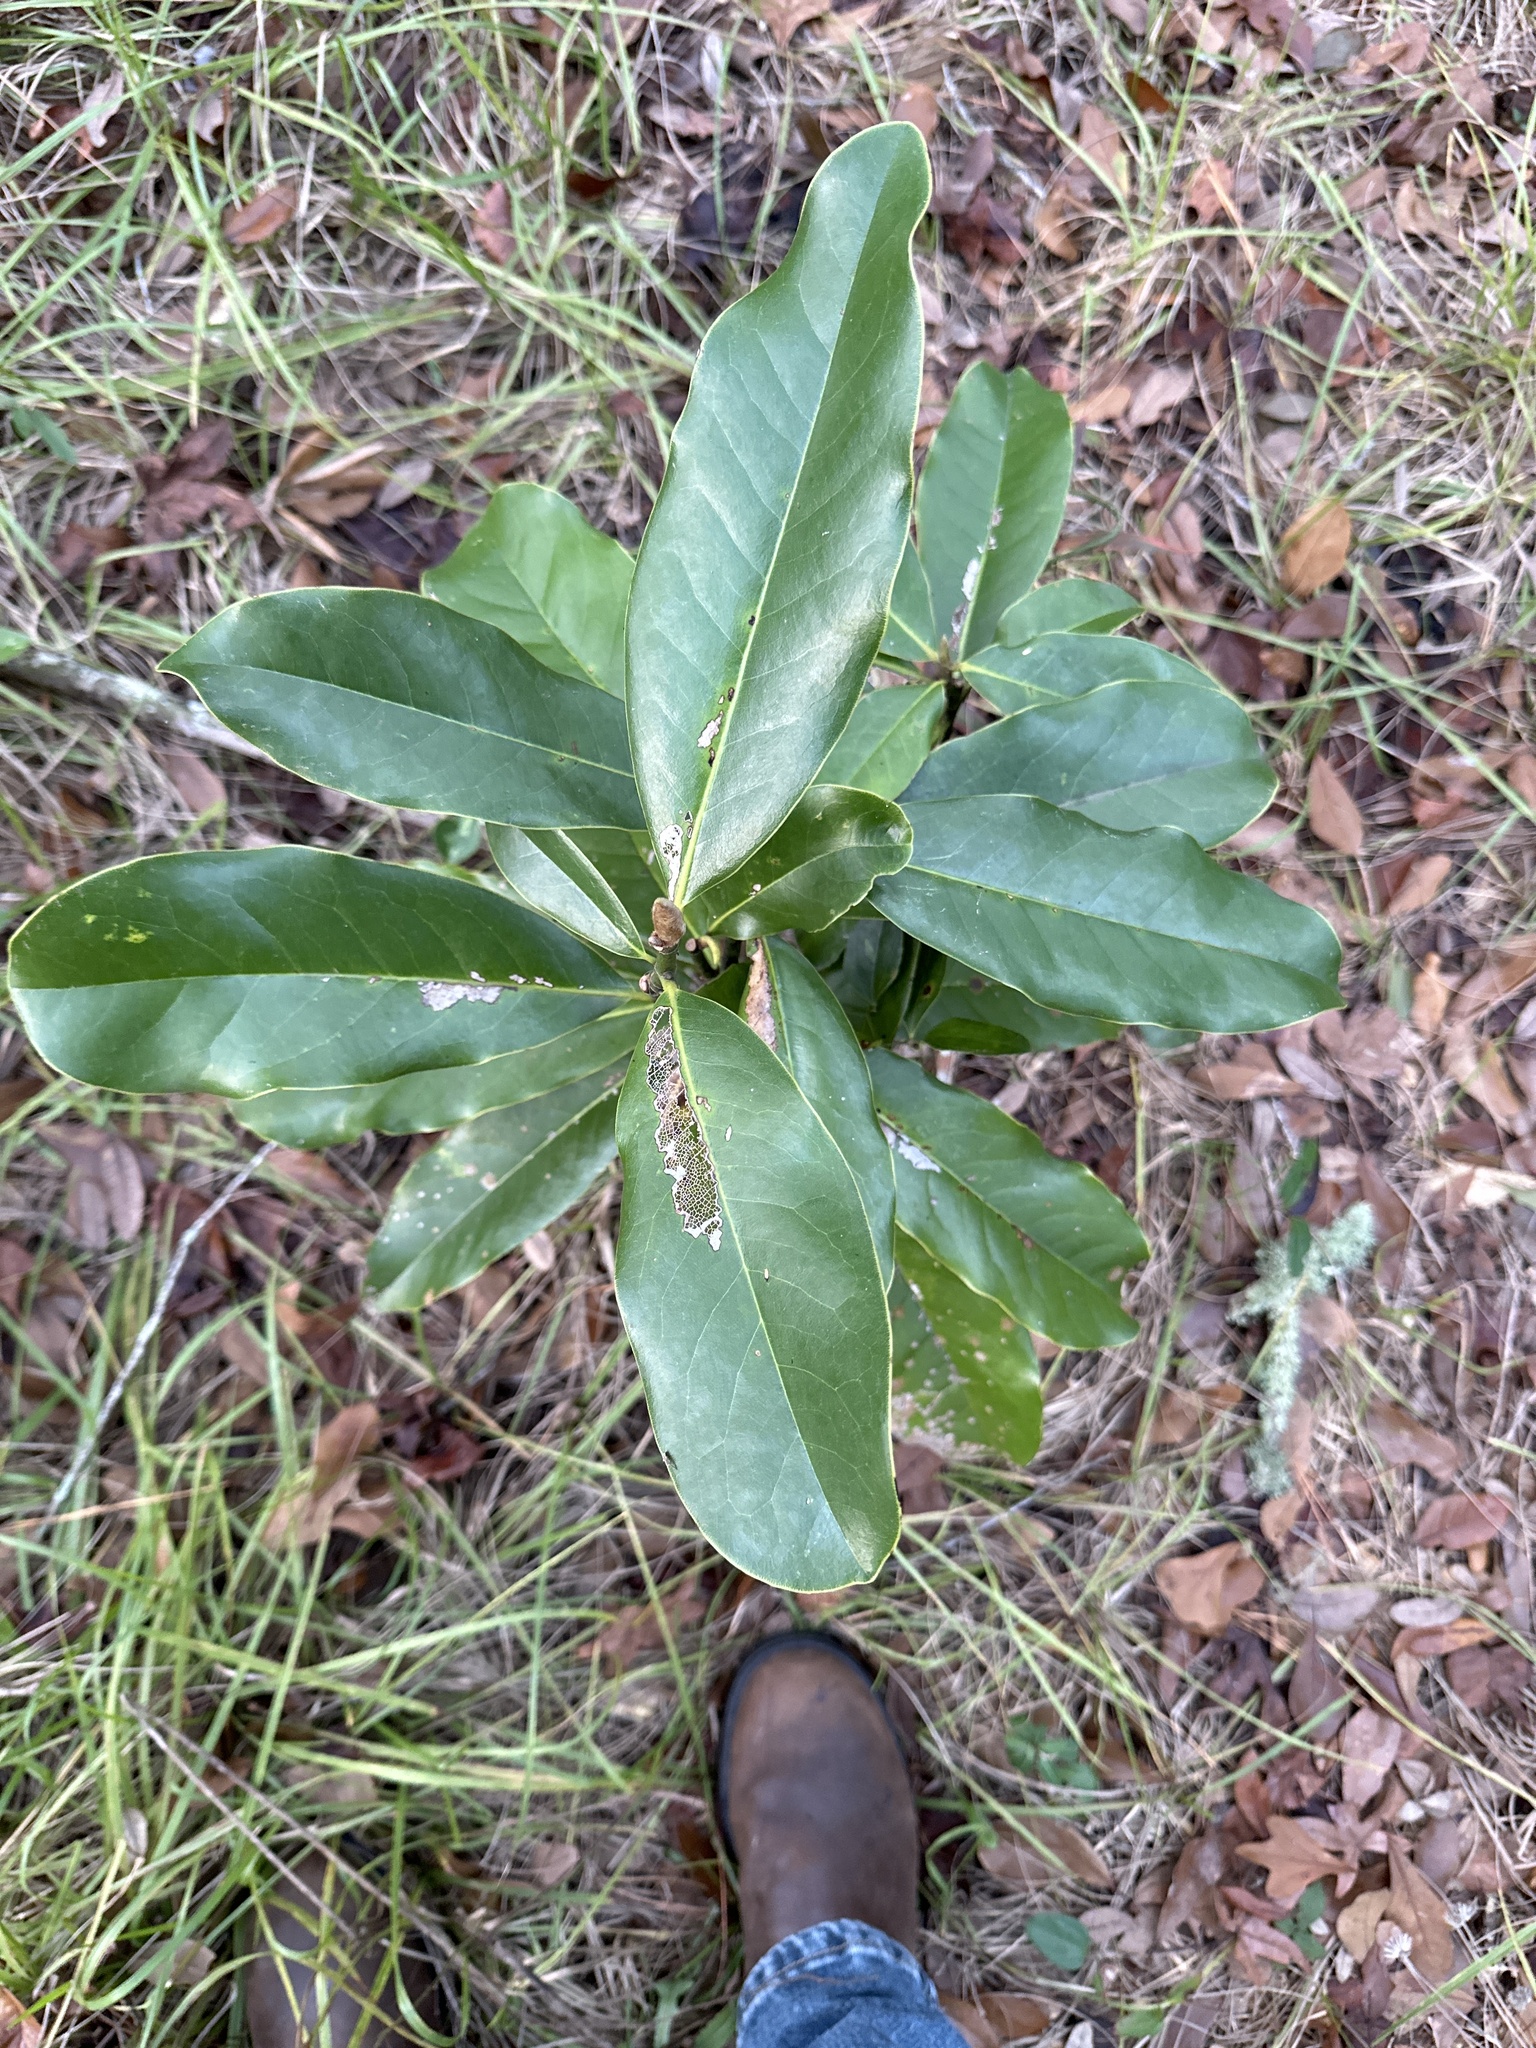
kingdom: Plantae
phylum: Tracheophyta
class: Magnoliopsida
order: Magnoliales
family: Magnoliaceae
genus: Magnolia
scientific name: Magnolia grandiflora
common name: Southern magnolia
